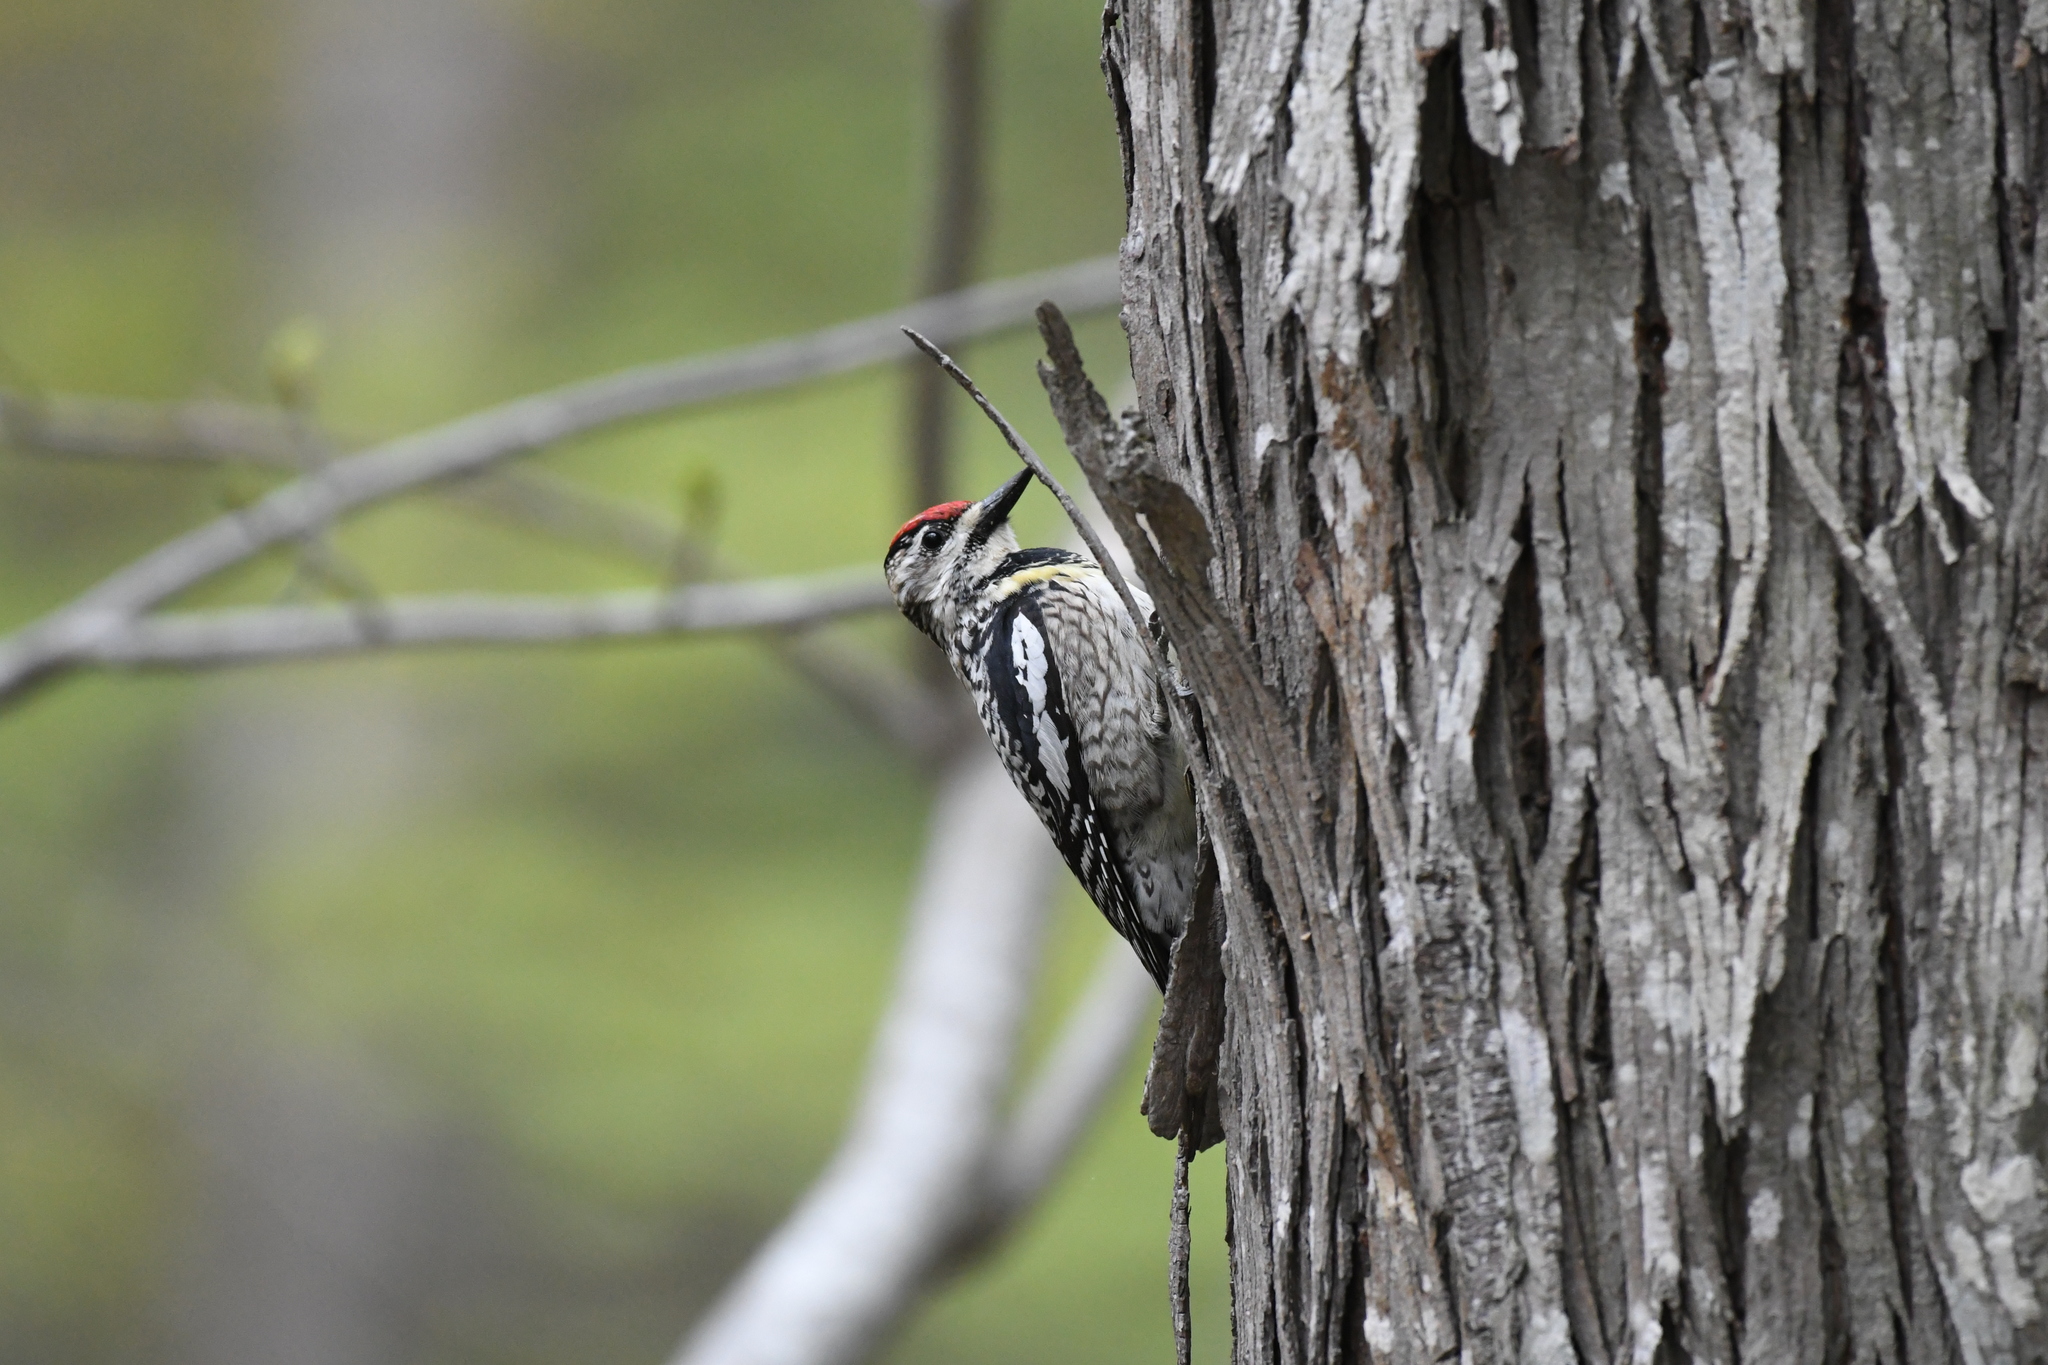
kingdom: Animalia
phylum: Chordata
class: Aves
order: Piciformes
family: Picidae
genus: Sphyrapicus
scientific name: Sphyrapicus varius
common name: Yellow-bellied sapsucker
